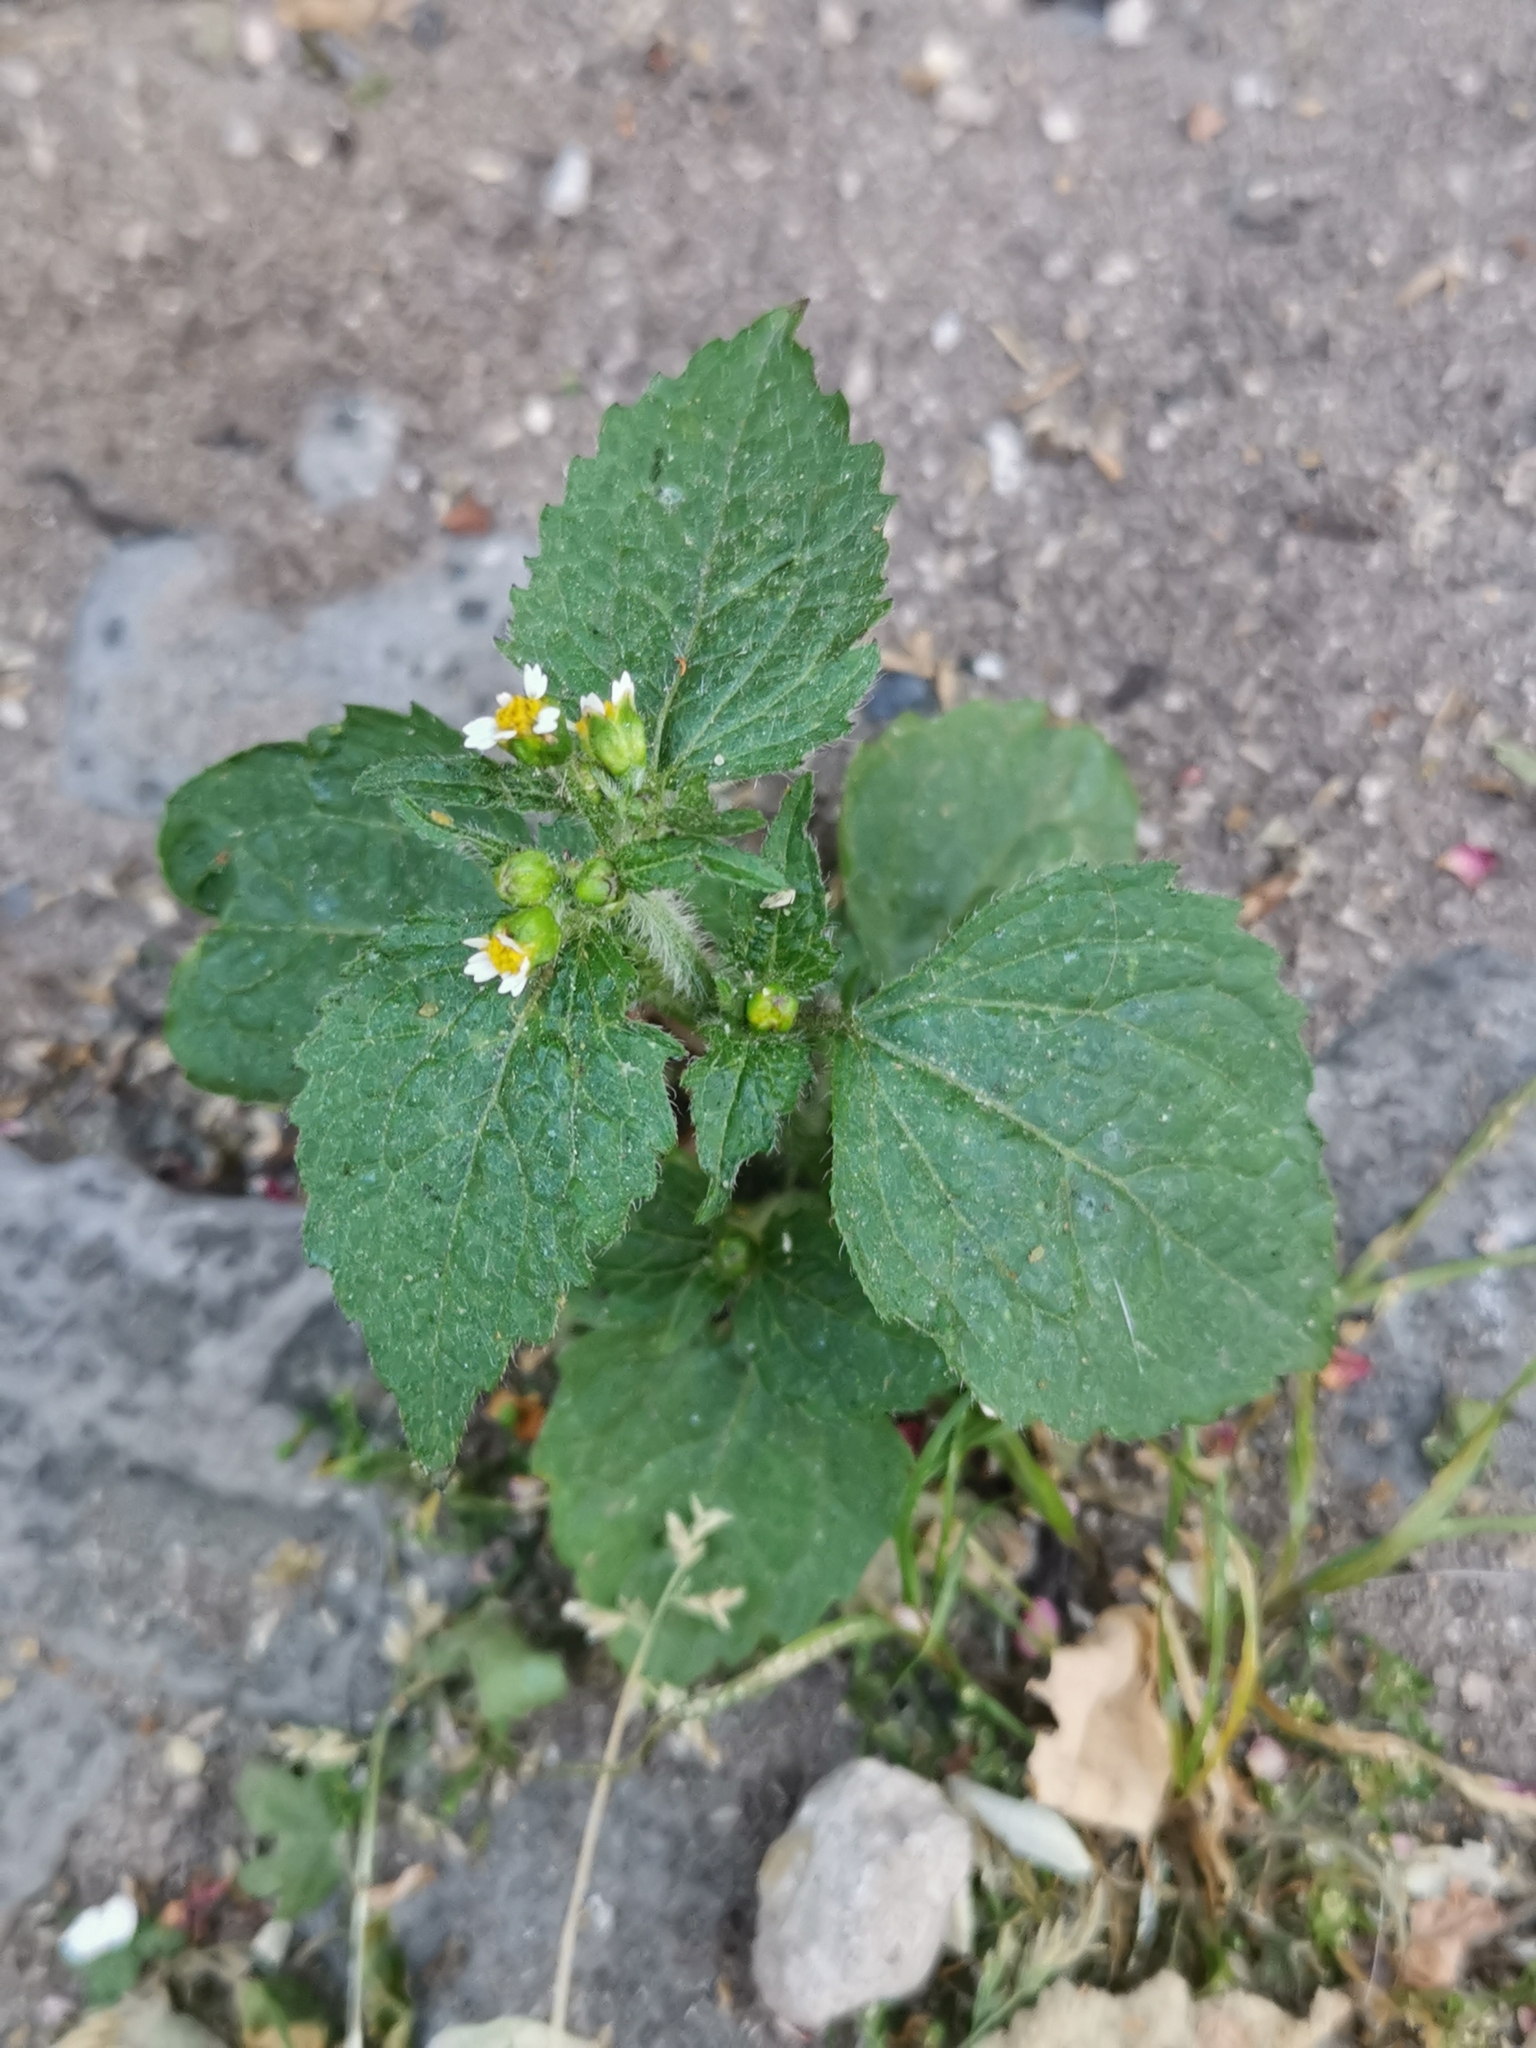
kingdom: Plantae
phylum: Tracheophyta
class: Magnoliopsida
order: Asterales
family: Asteraceae
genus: Galinsoga
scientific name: Galinsoga quadriradiata
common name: Shaggy soldier
